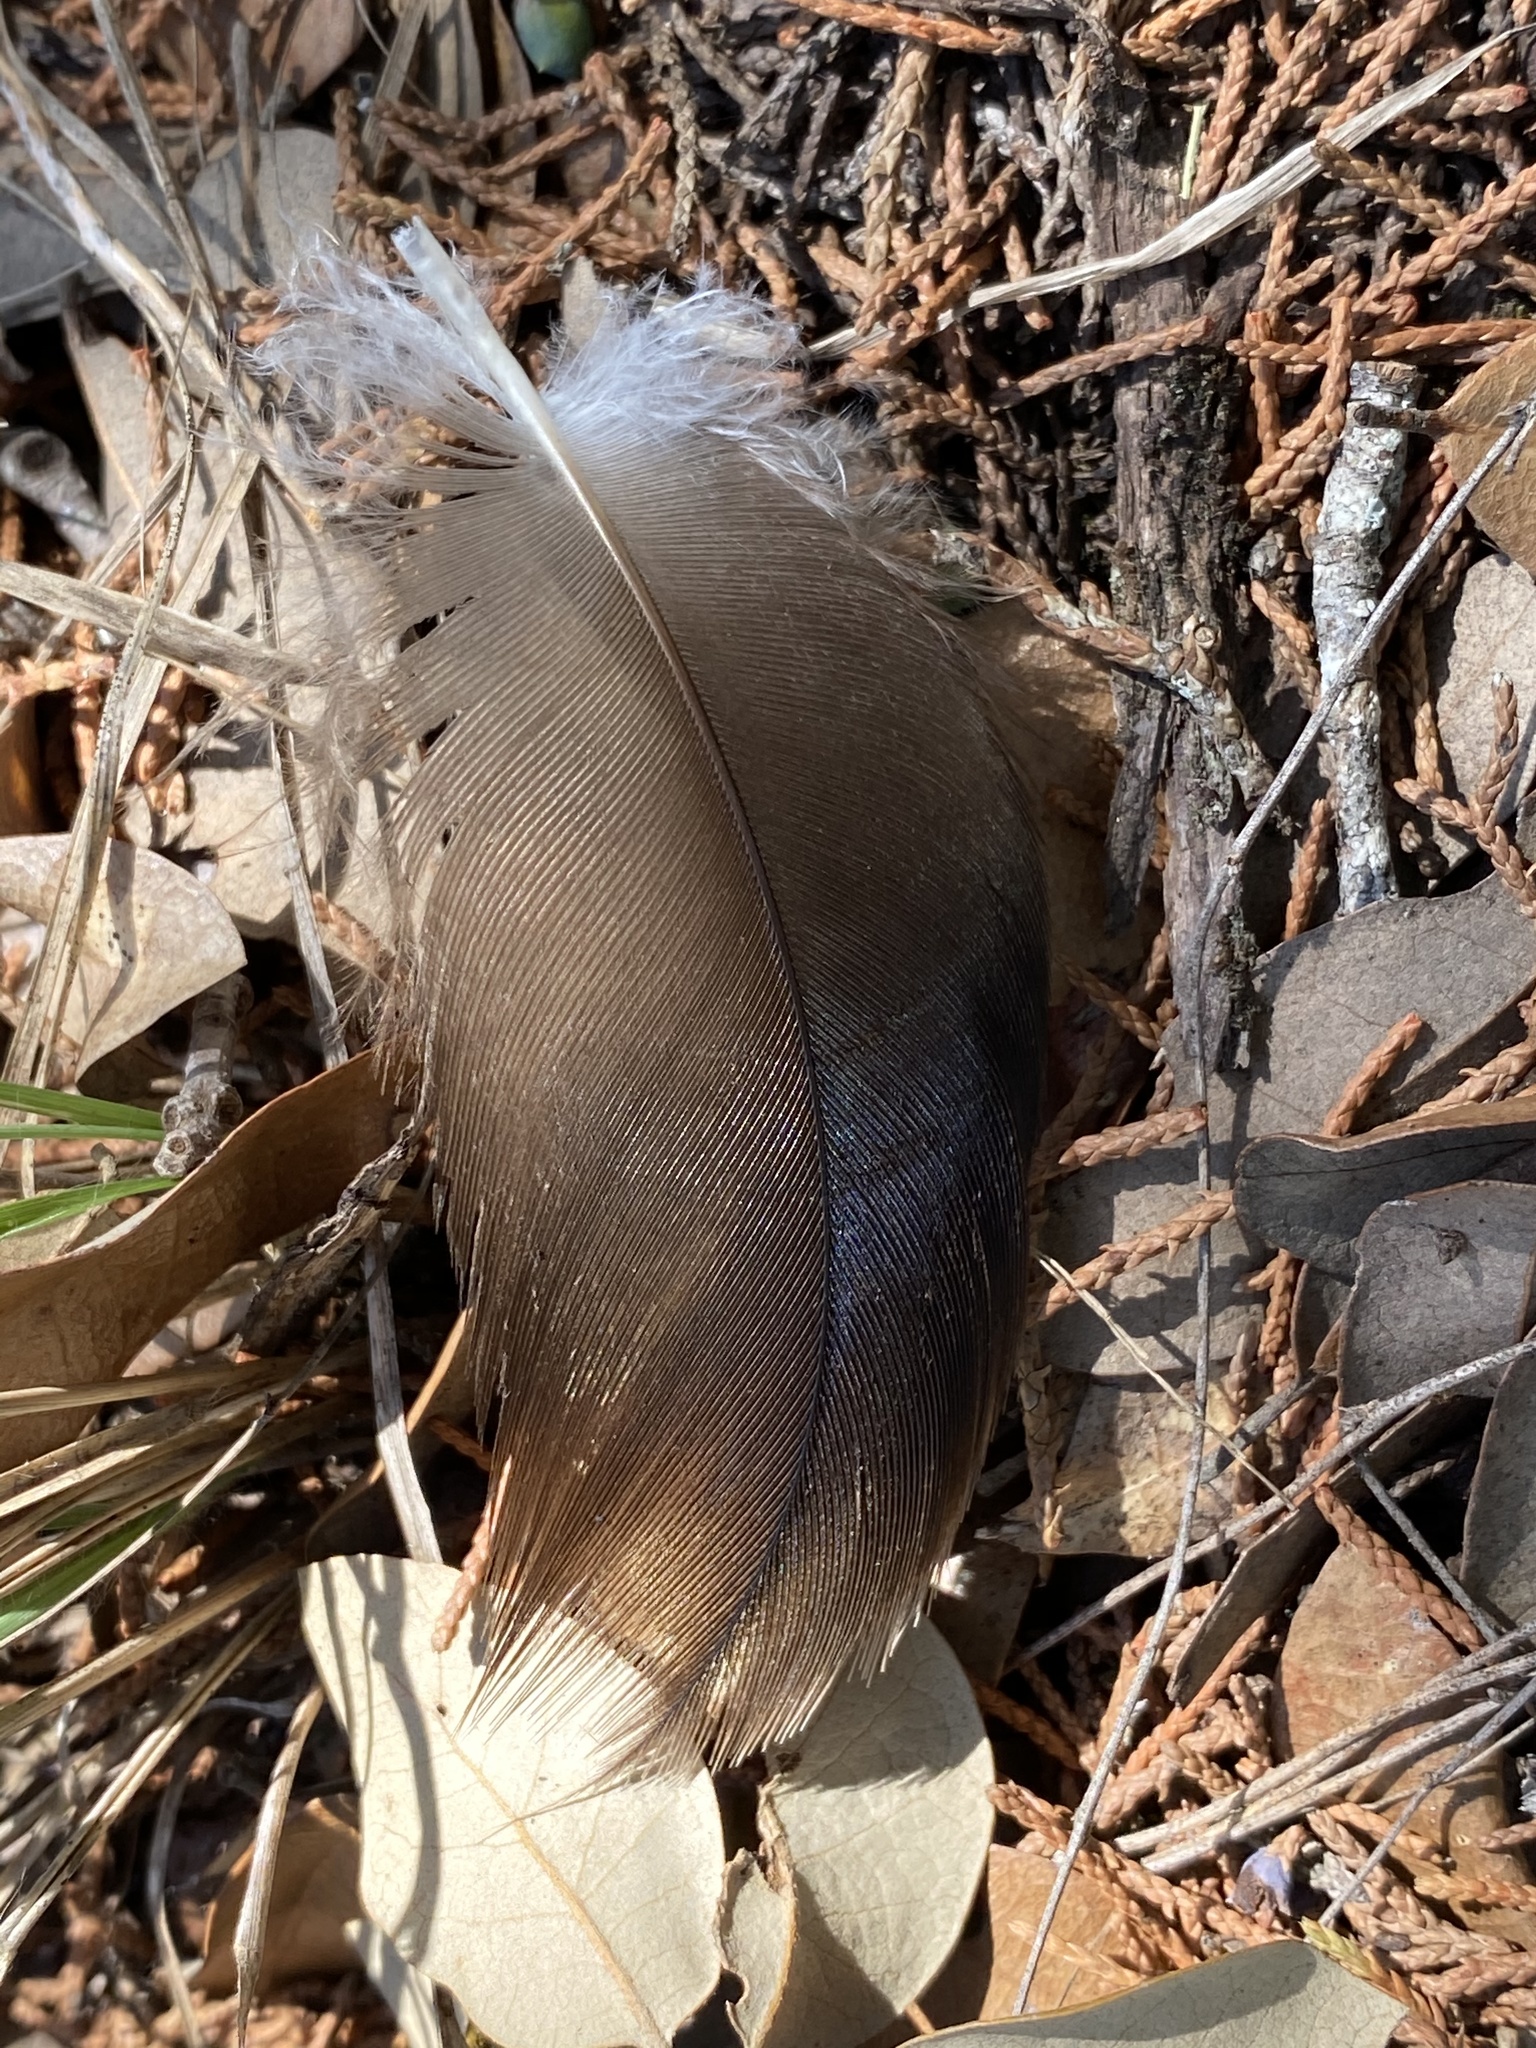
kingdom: Animalia
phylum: Chordata
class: Aves
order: Accipitriformes
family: Cathartidae
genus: Cathartes
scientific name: Cathartes aura
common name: Turkey vulture
